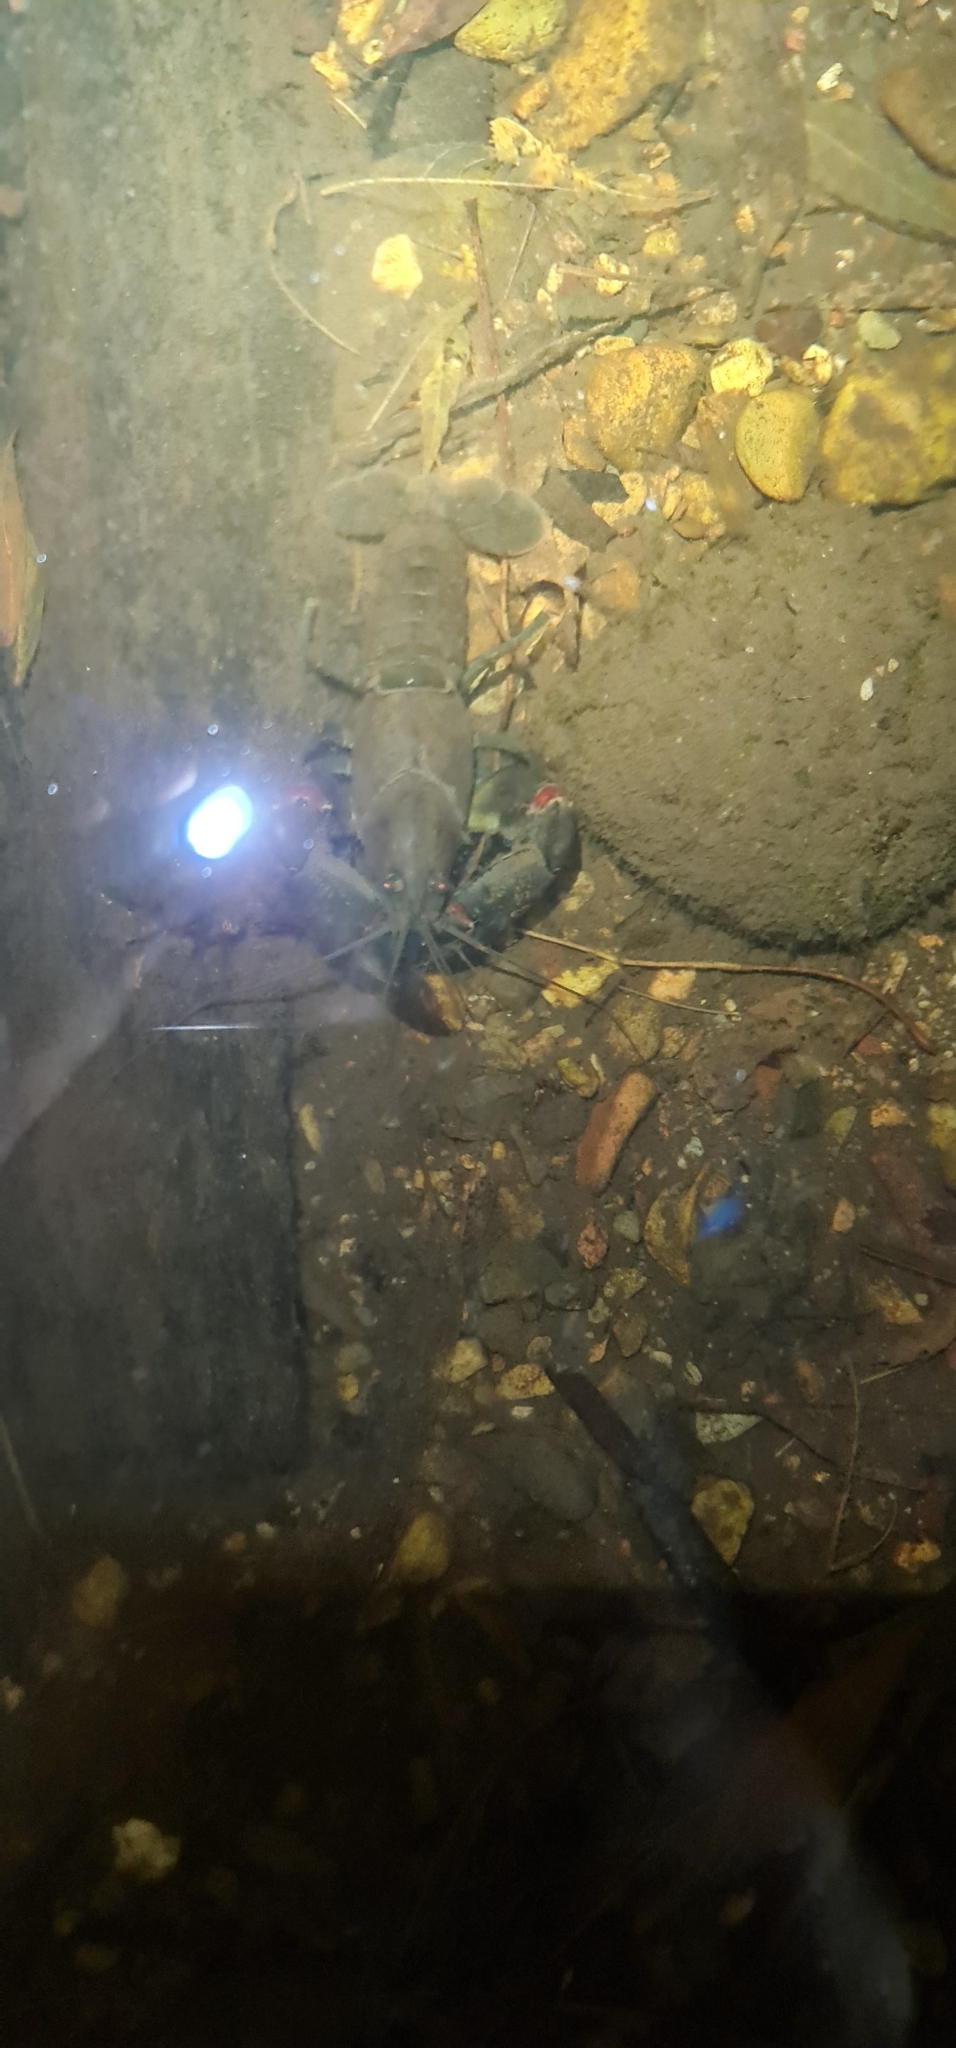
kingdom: Animalia
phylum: Arthropoda
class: Malacostraca
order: Decapoda
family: Parastacidae
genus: Cherax
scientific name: Cherax destructor
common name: Yabby
